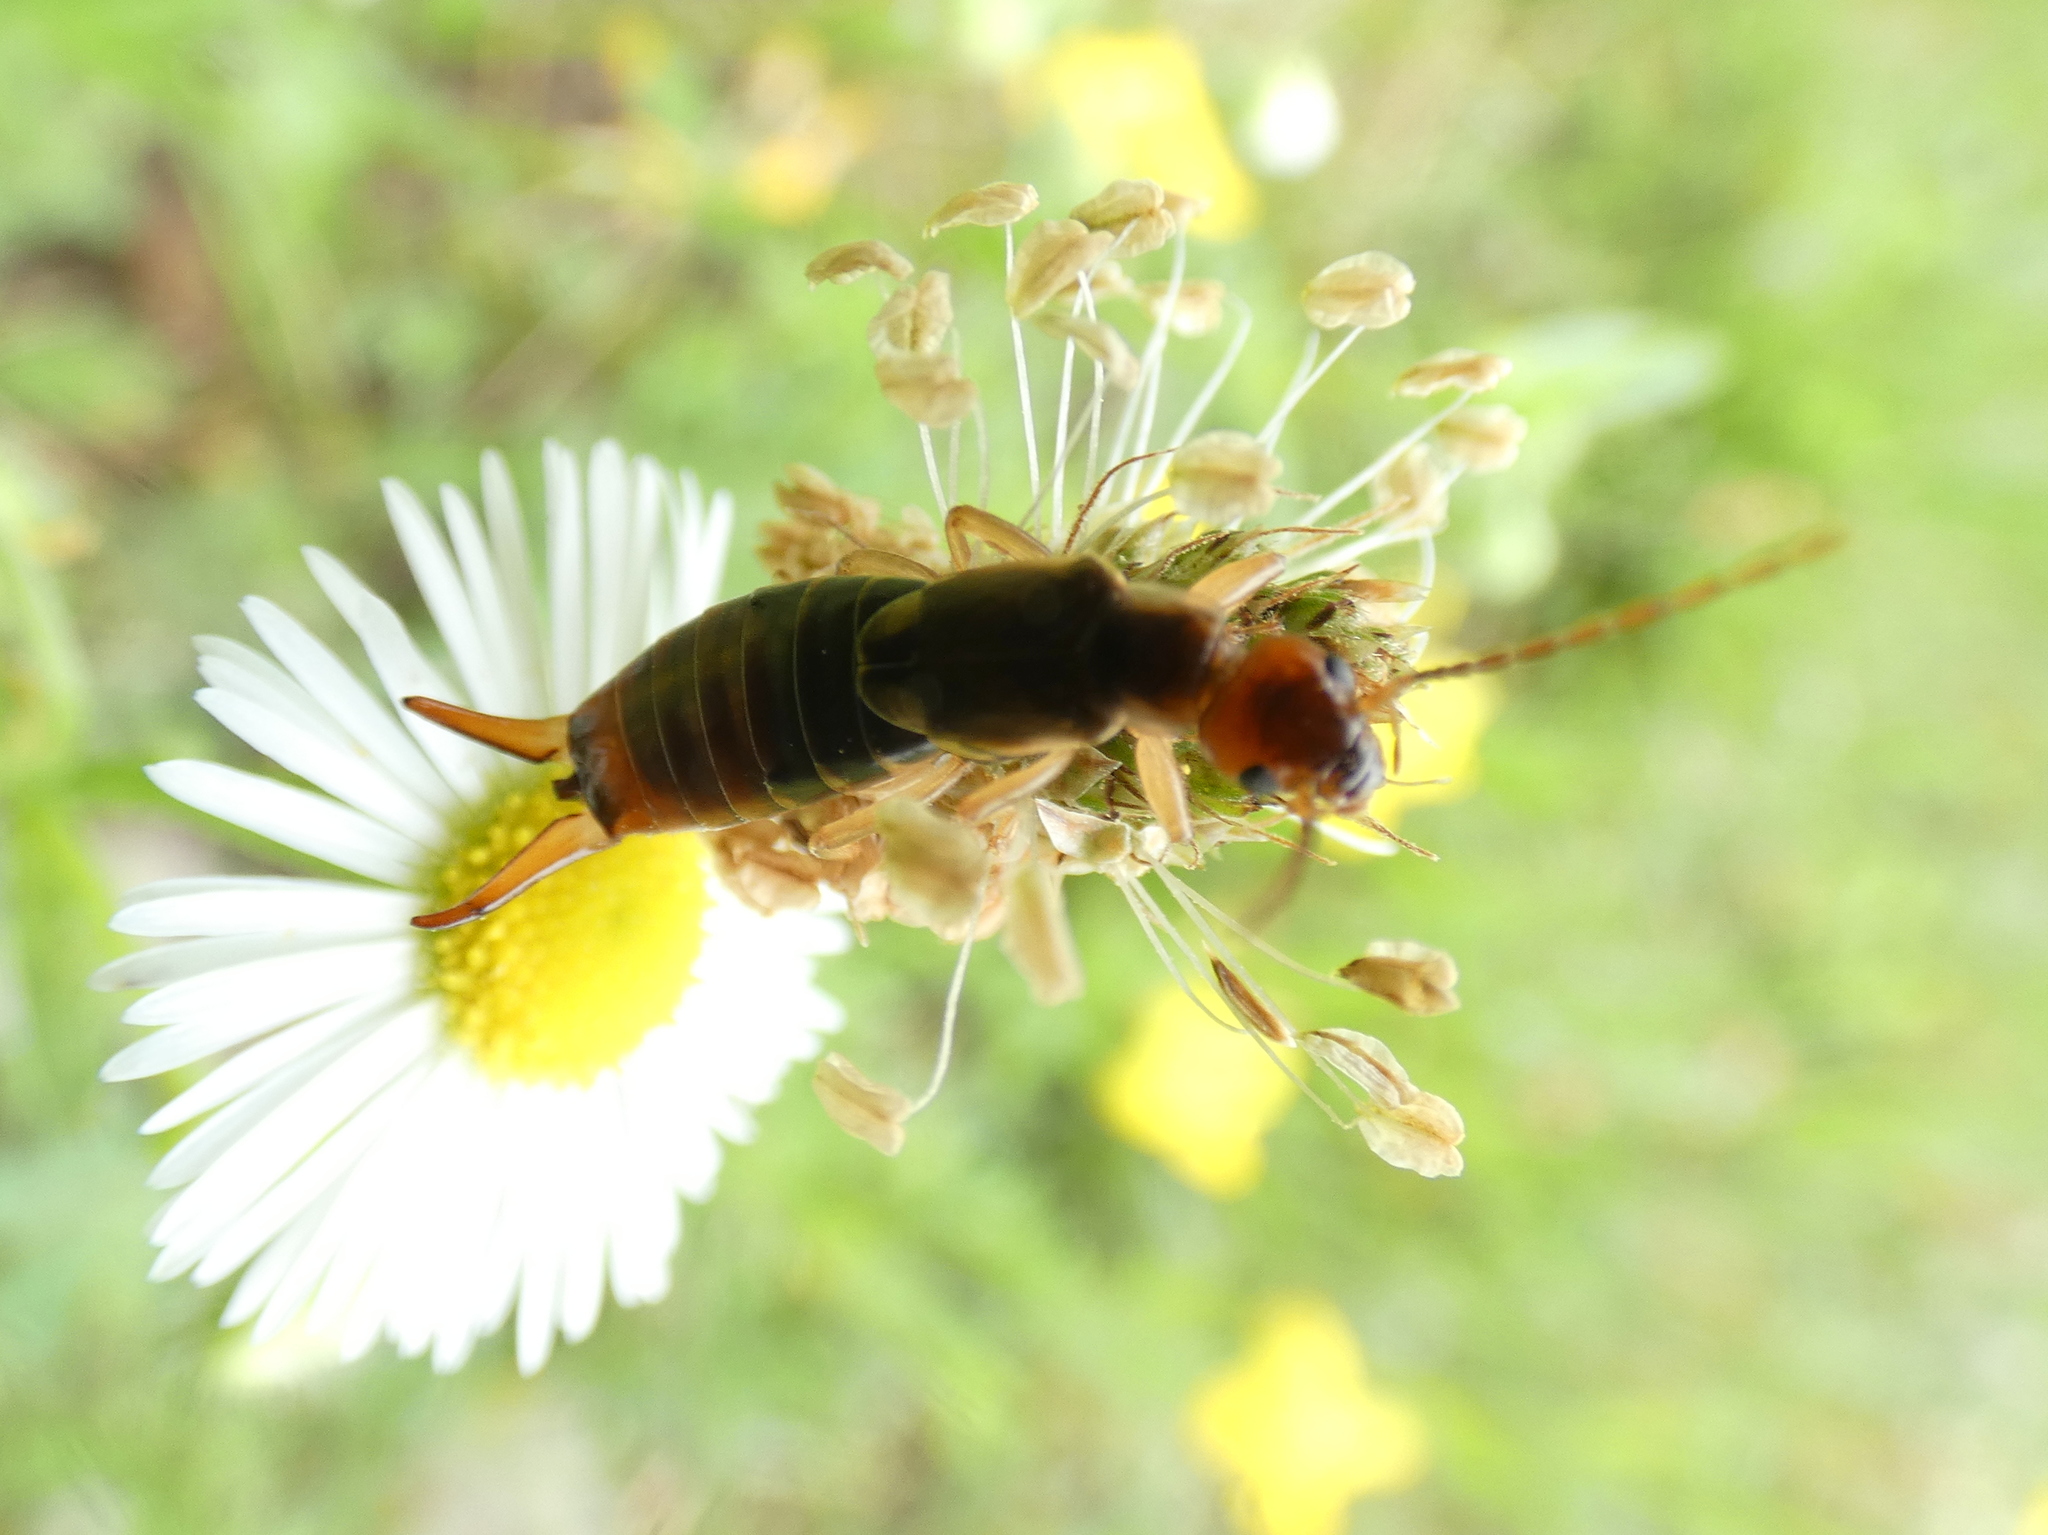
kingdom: Animalia
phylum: Arthropoda
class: Insecta
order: Dermaptera
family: Forficulidae
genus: Forficula
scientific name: Forficula
